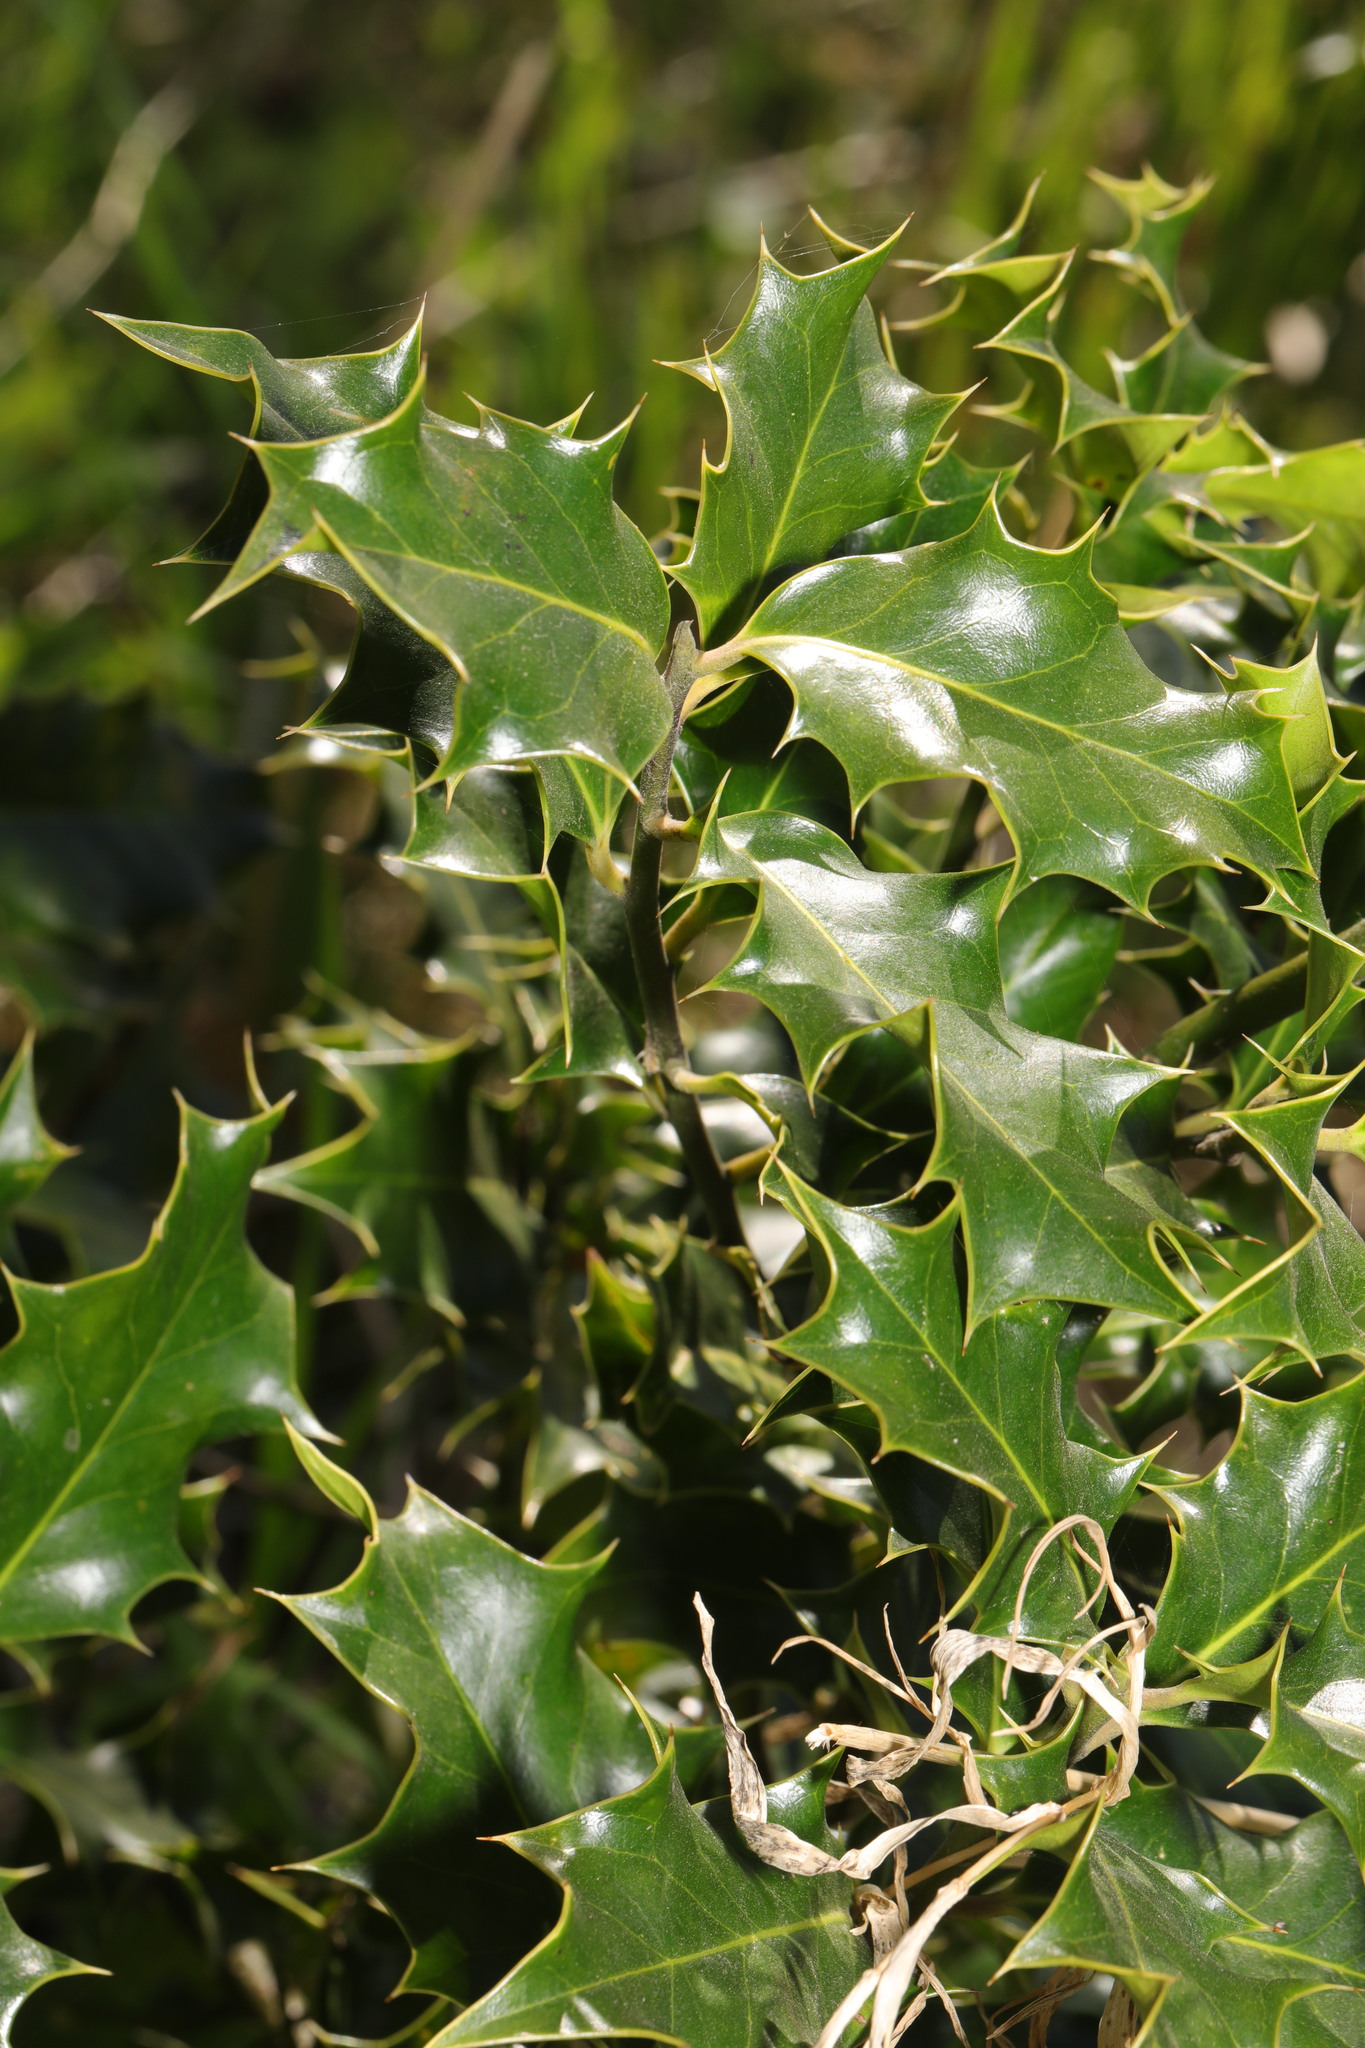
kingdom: Plantae
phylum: Tracheophyta
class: Magnoliopsida
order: Aquifoliales
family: Aquifoliaceae
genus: Ilex
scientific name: Ilex aquifolium
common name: English holly
